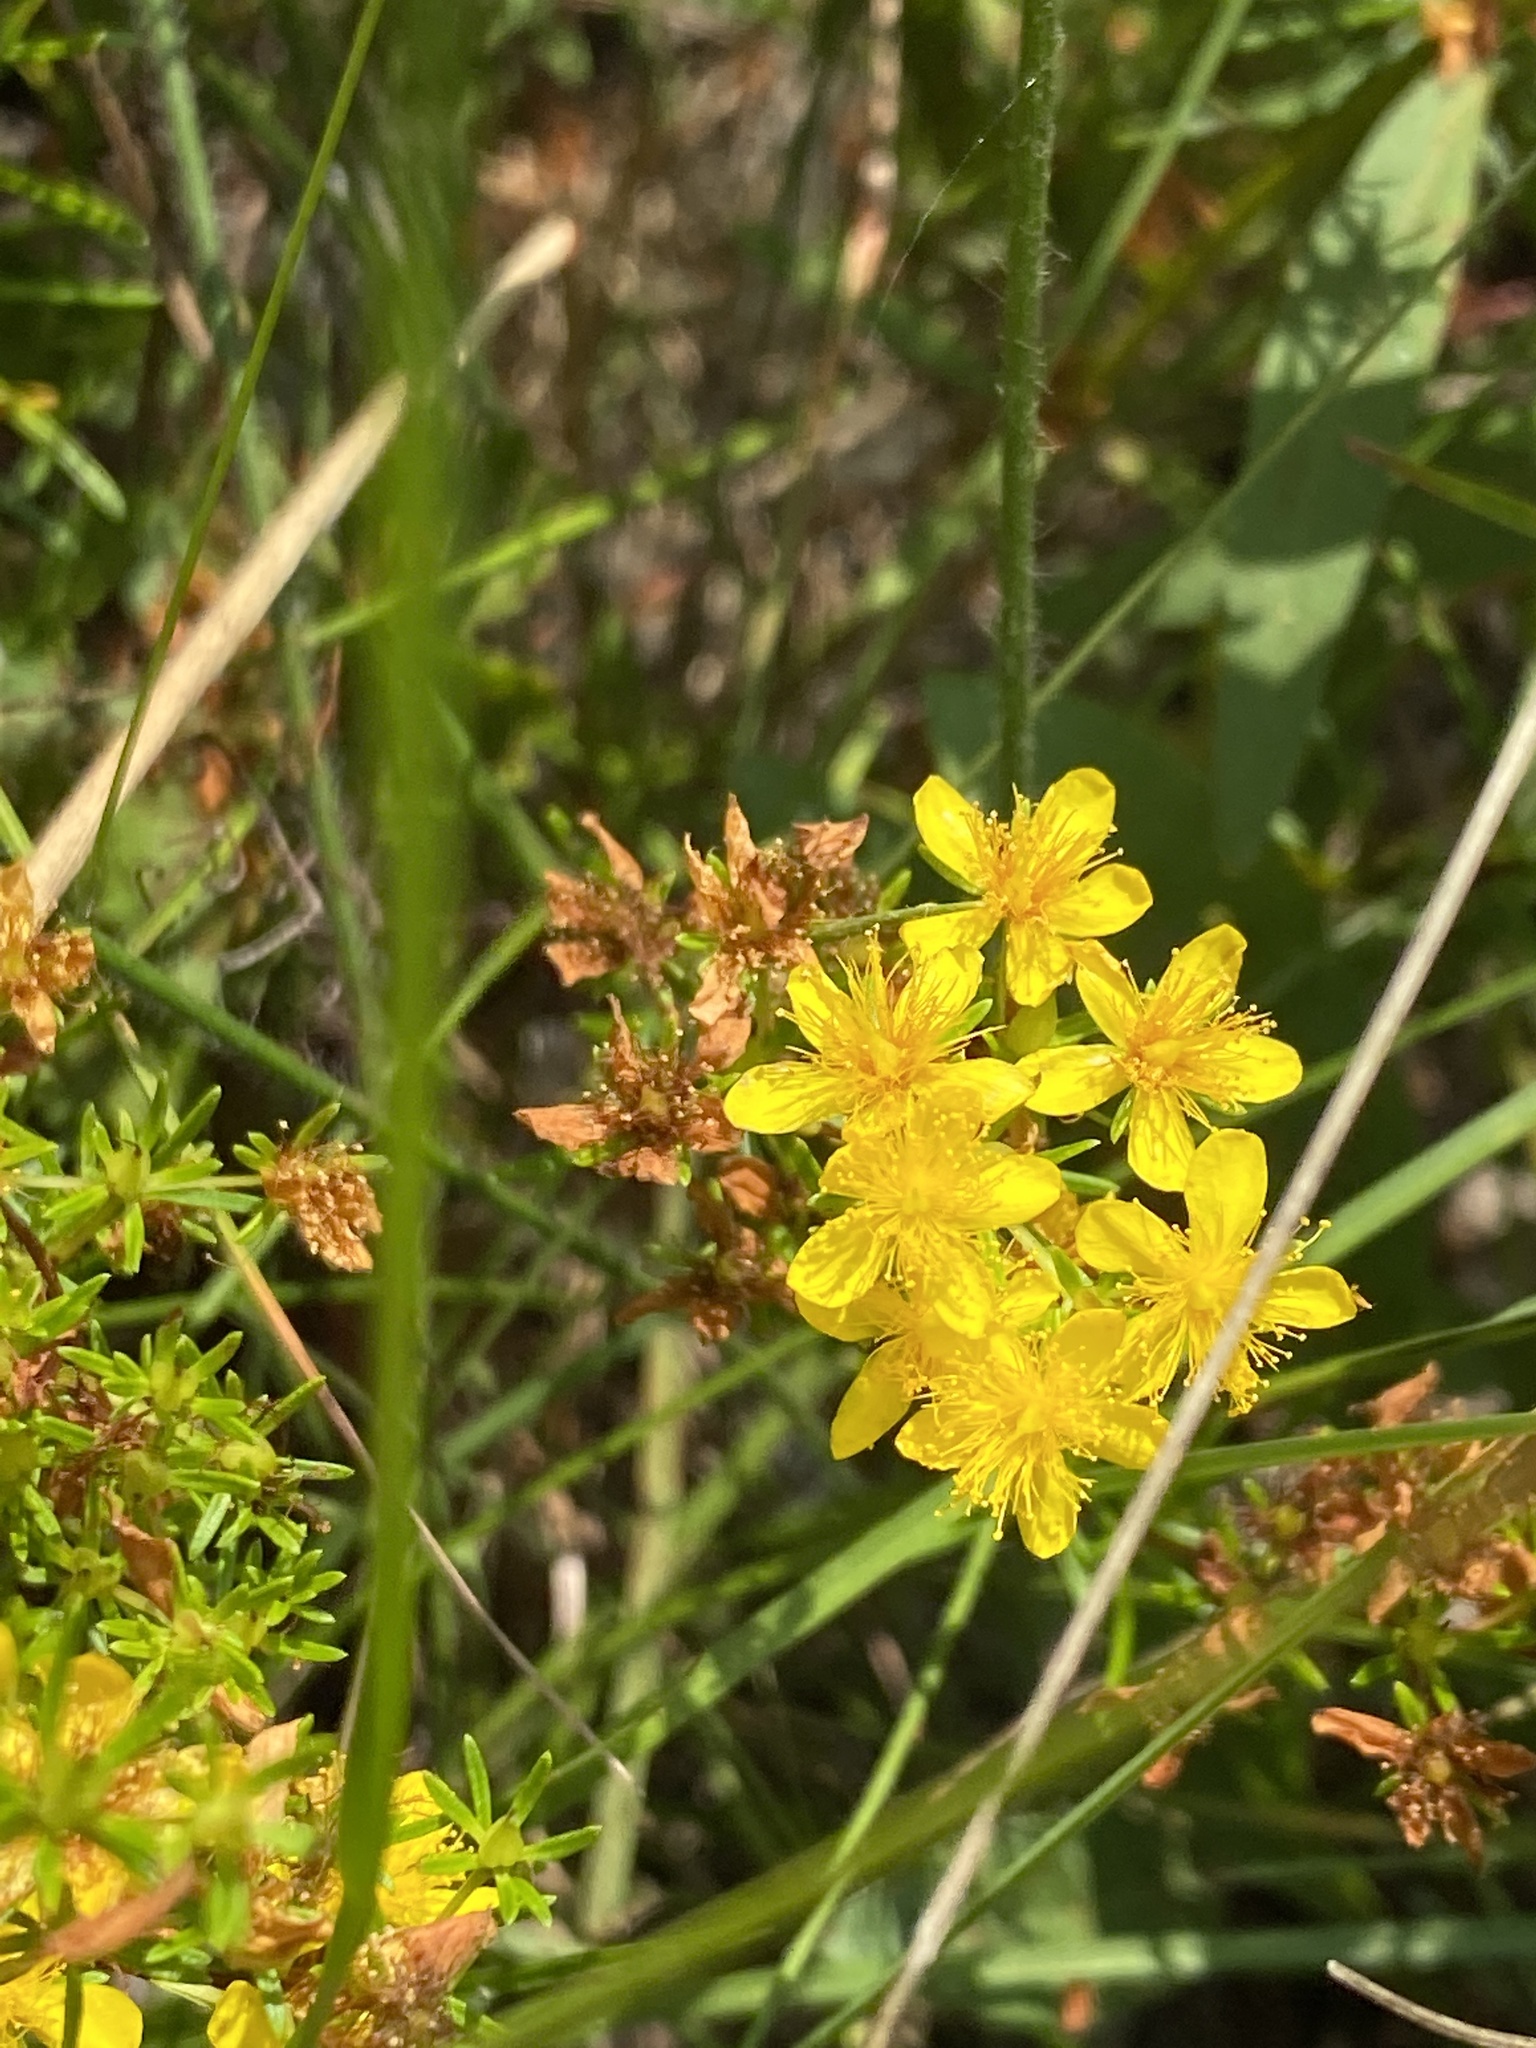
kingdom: Plantae
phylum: Tracheophyta
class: Magnoliopsida
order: Malpighiales
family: Hypericaceae
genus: Hypericum
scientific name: Hypericum lloydii
